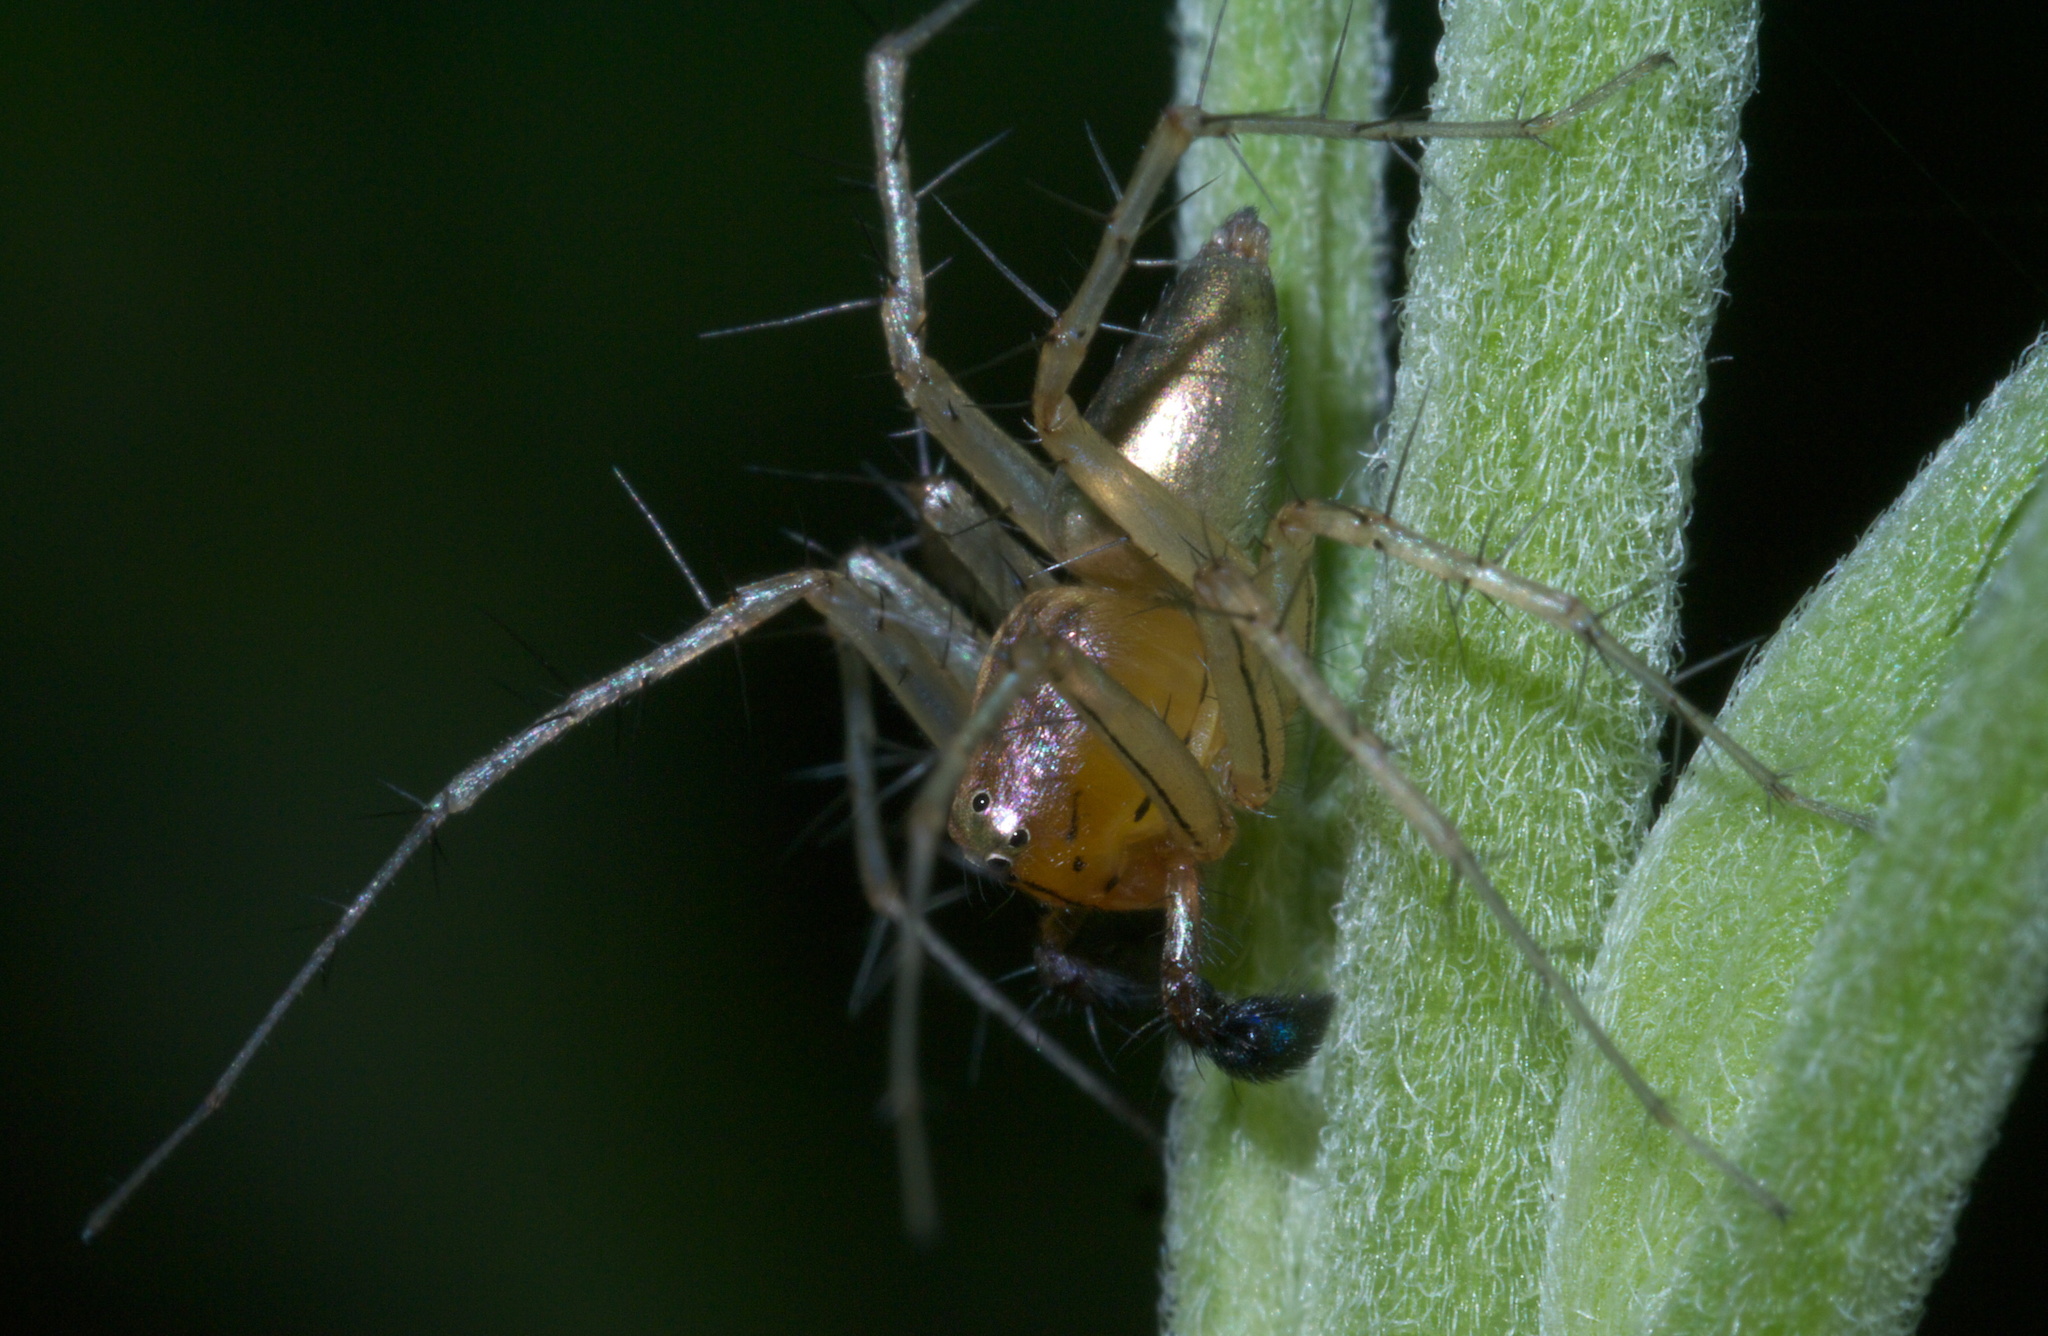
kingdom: Animalia
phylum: Arthropoda
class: Arachnida
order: Araneae
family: Oxyopidae
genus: Oxyopes
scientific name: Oxyopes salticus
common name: Lynx spiders
